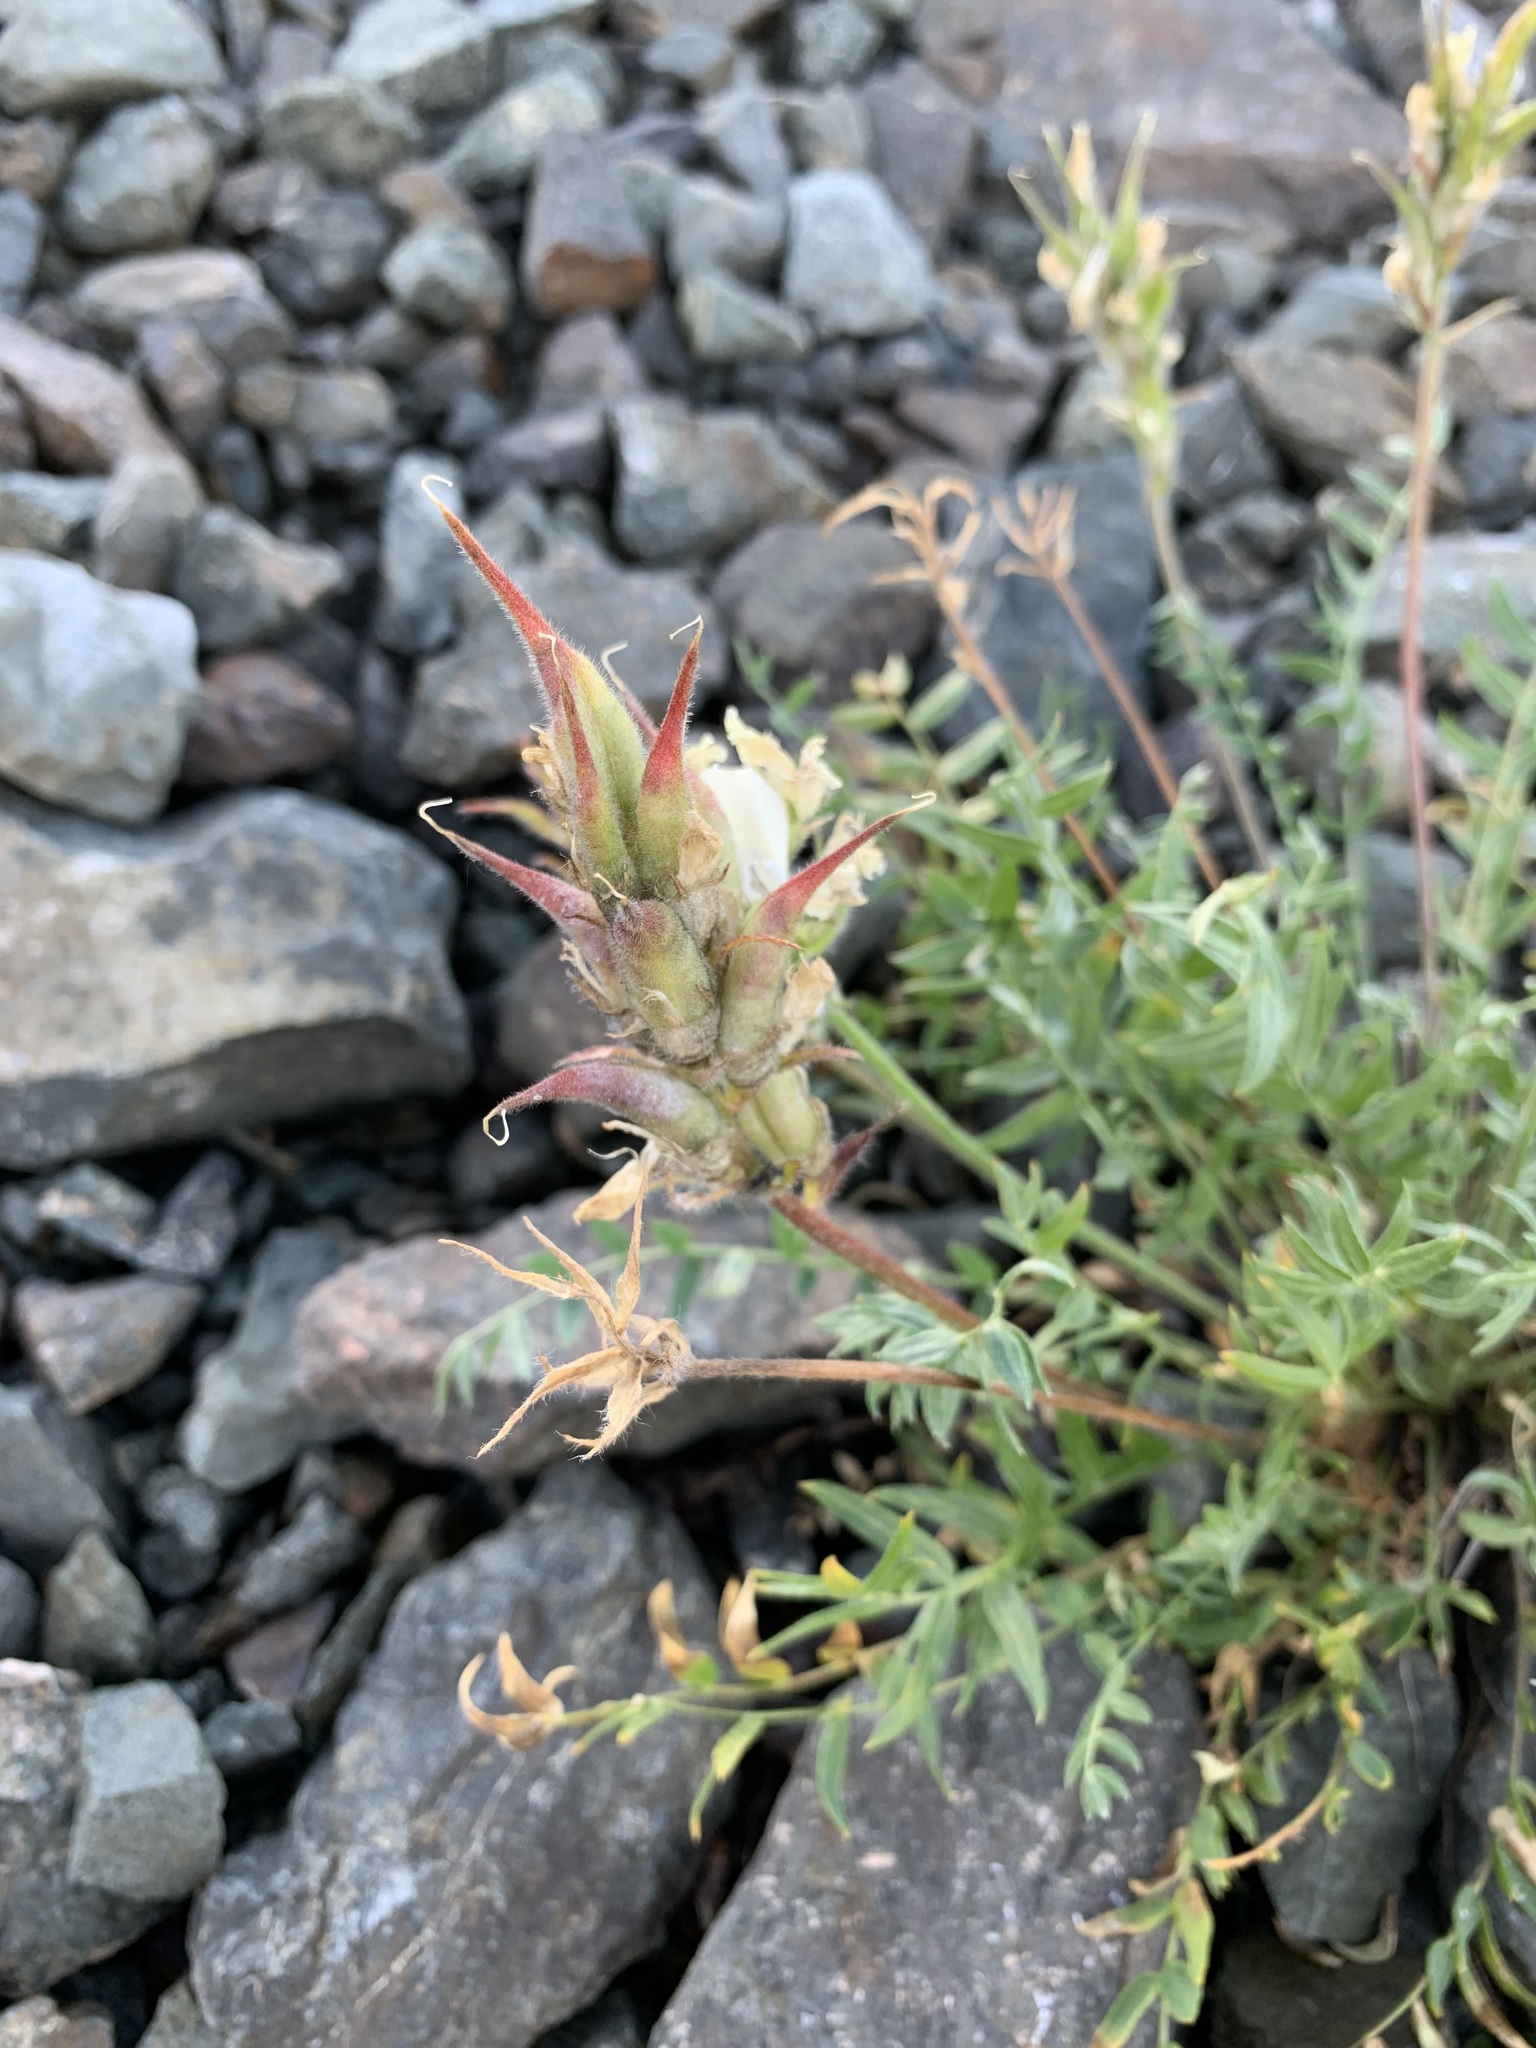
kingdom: Plantae
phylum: Tracheophyta
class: Magnoliopsida
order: Fabales
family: Fabaceae
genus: Oxytropis
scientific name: Oxytropis sordida
